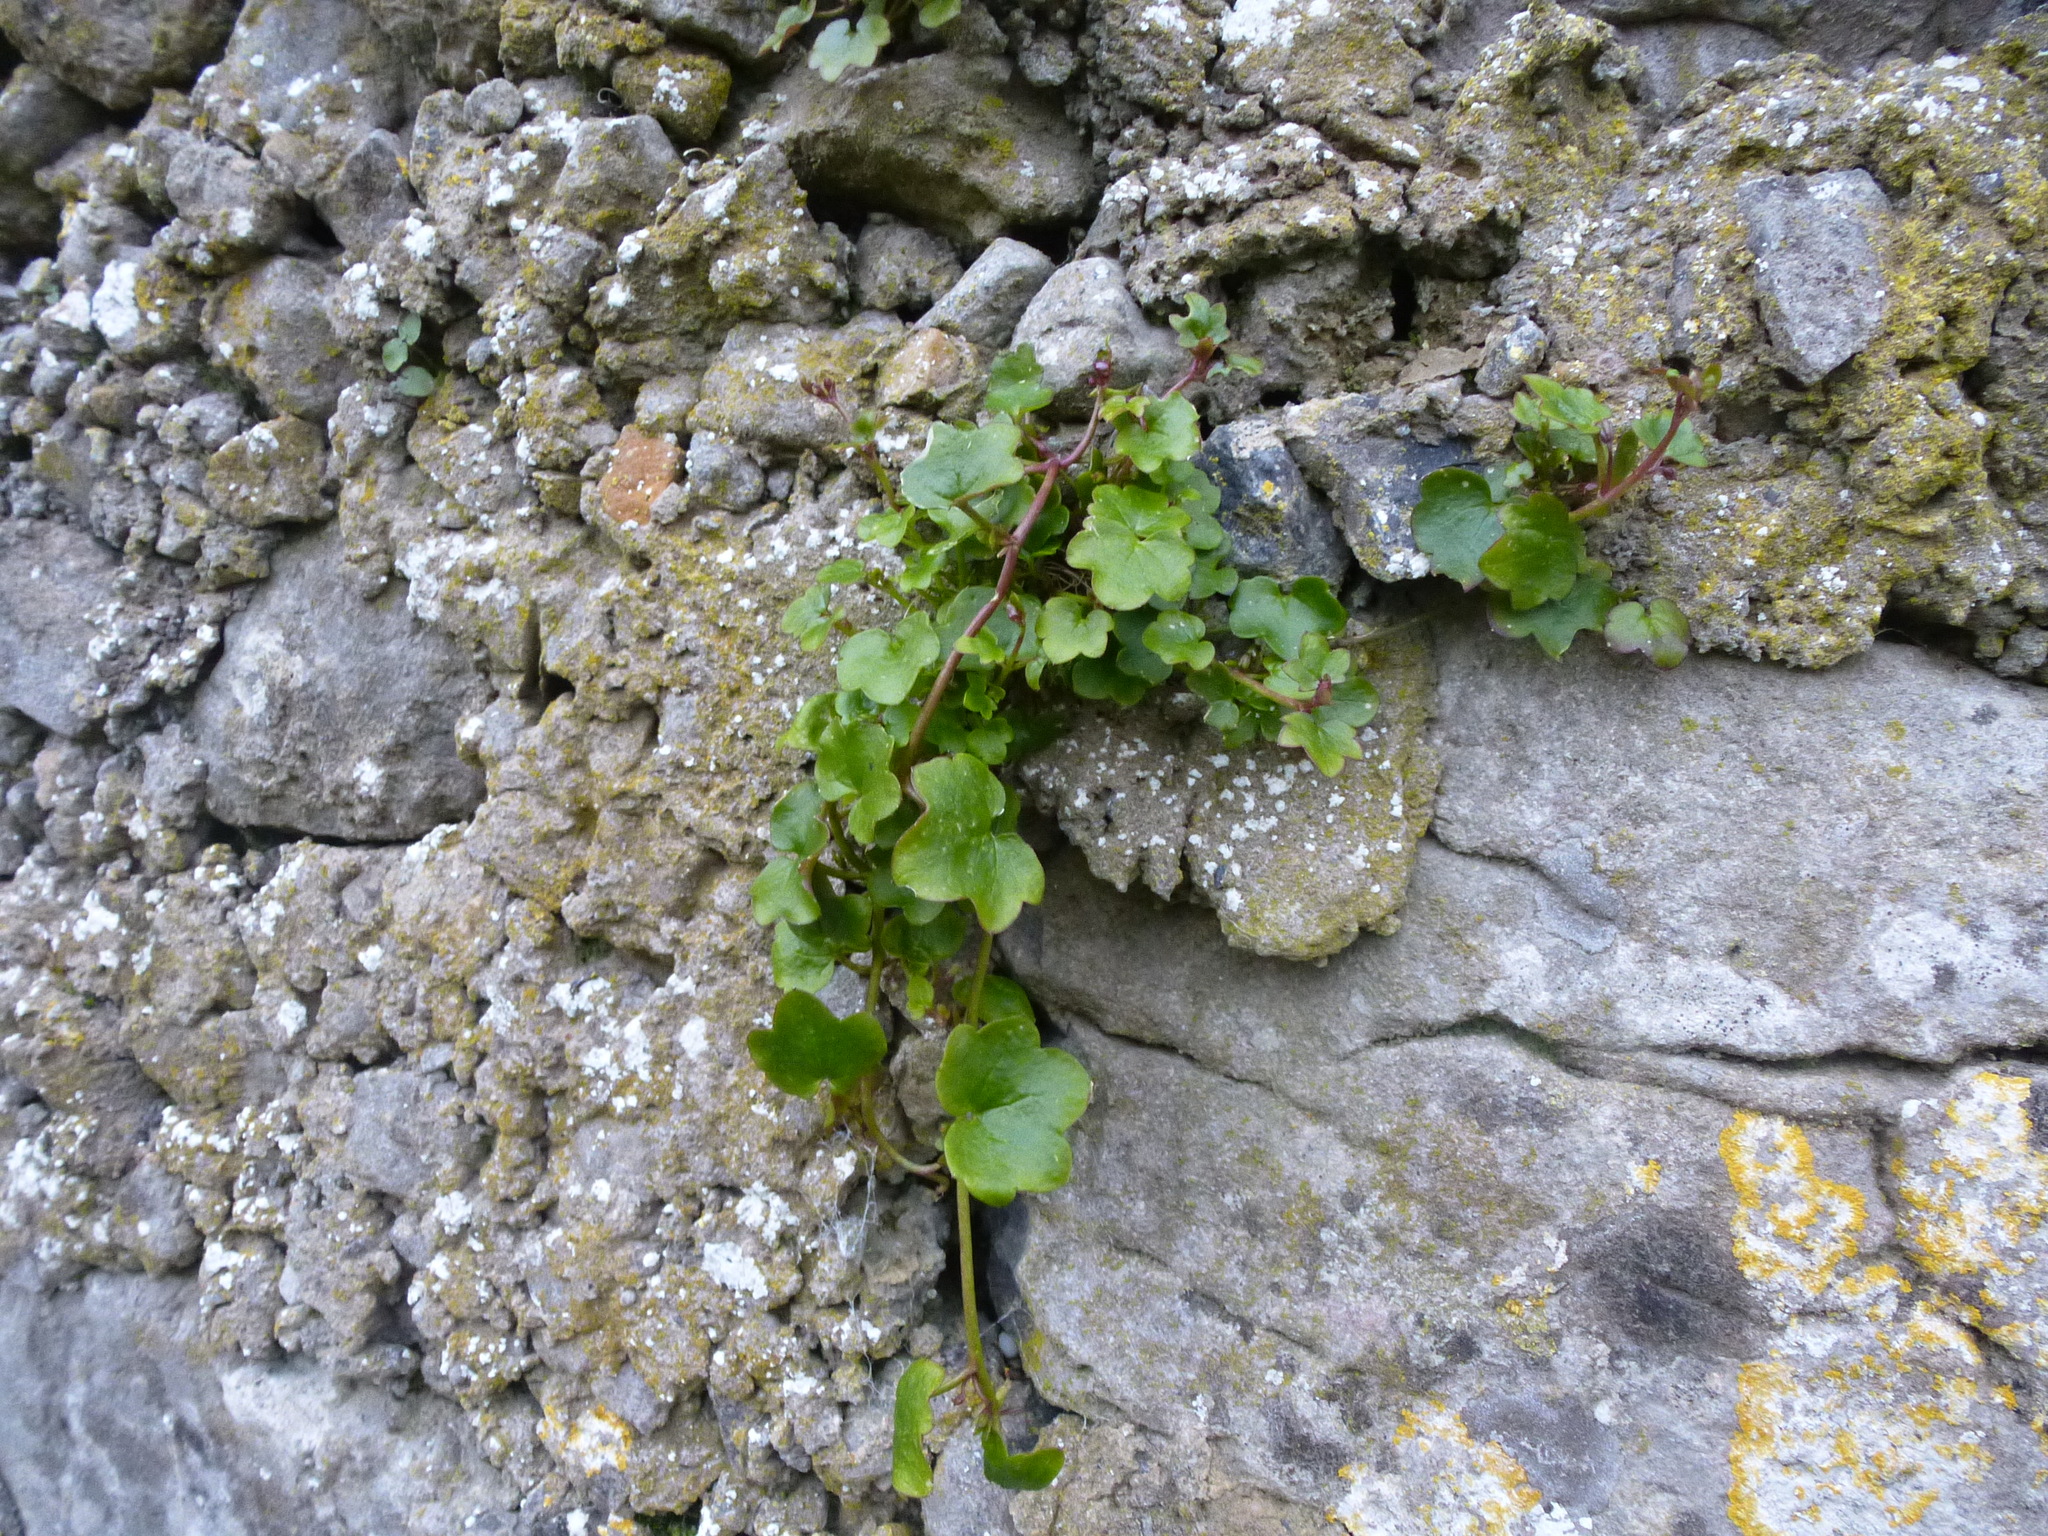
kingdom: Plantae
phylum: Tracheophyta
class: Magnoliopsida
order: Lamiales
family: Plantaginaceae
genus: Cymbalaria
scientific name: Cymbalaria muralis
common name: Ivy-leaved toadflax
